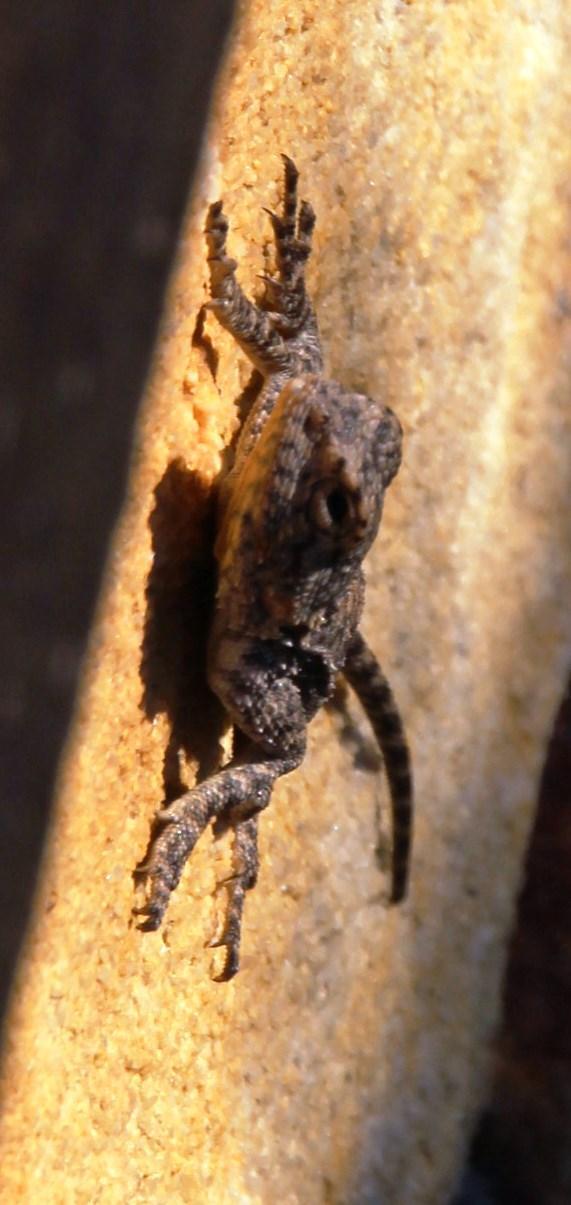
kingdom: Animalia
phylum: Chordata
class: Squamata
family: Agamidae
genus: Agama
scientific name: Agama atra
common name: Southern african rock agama
